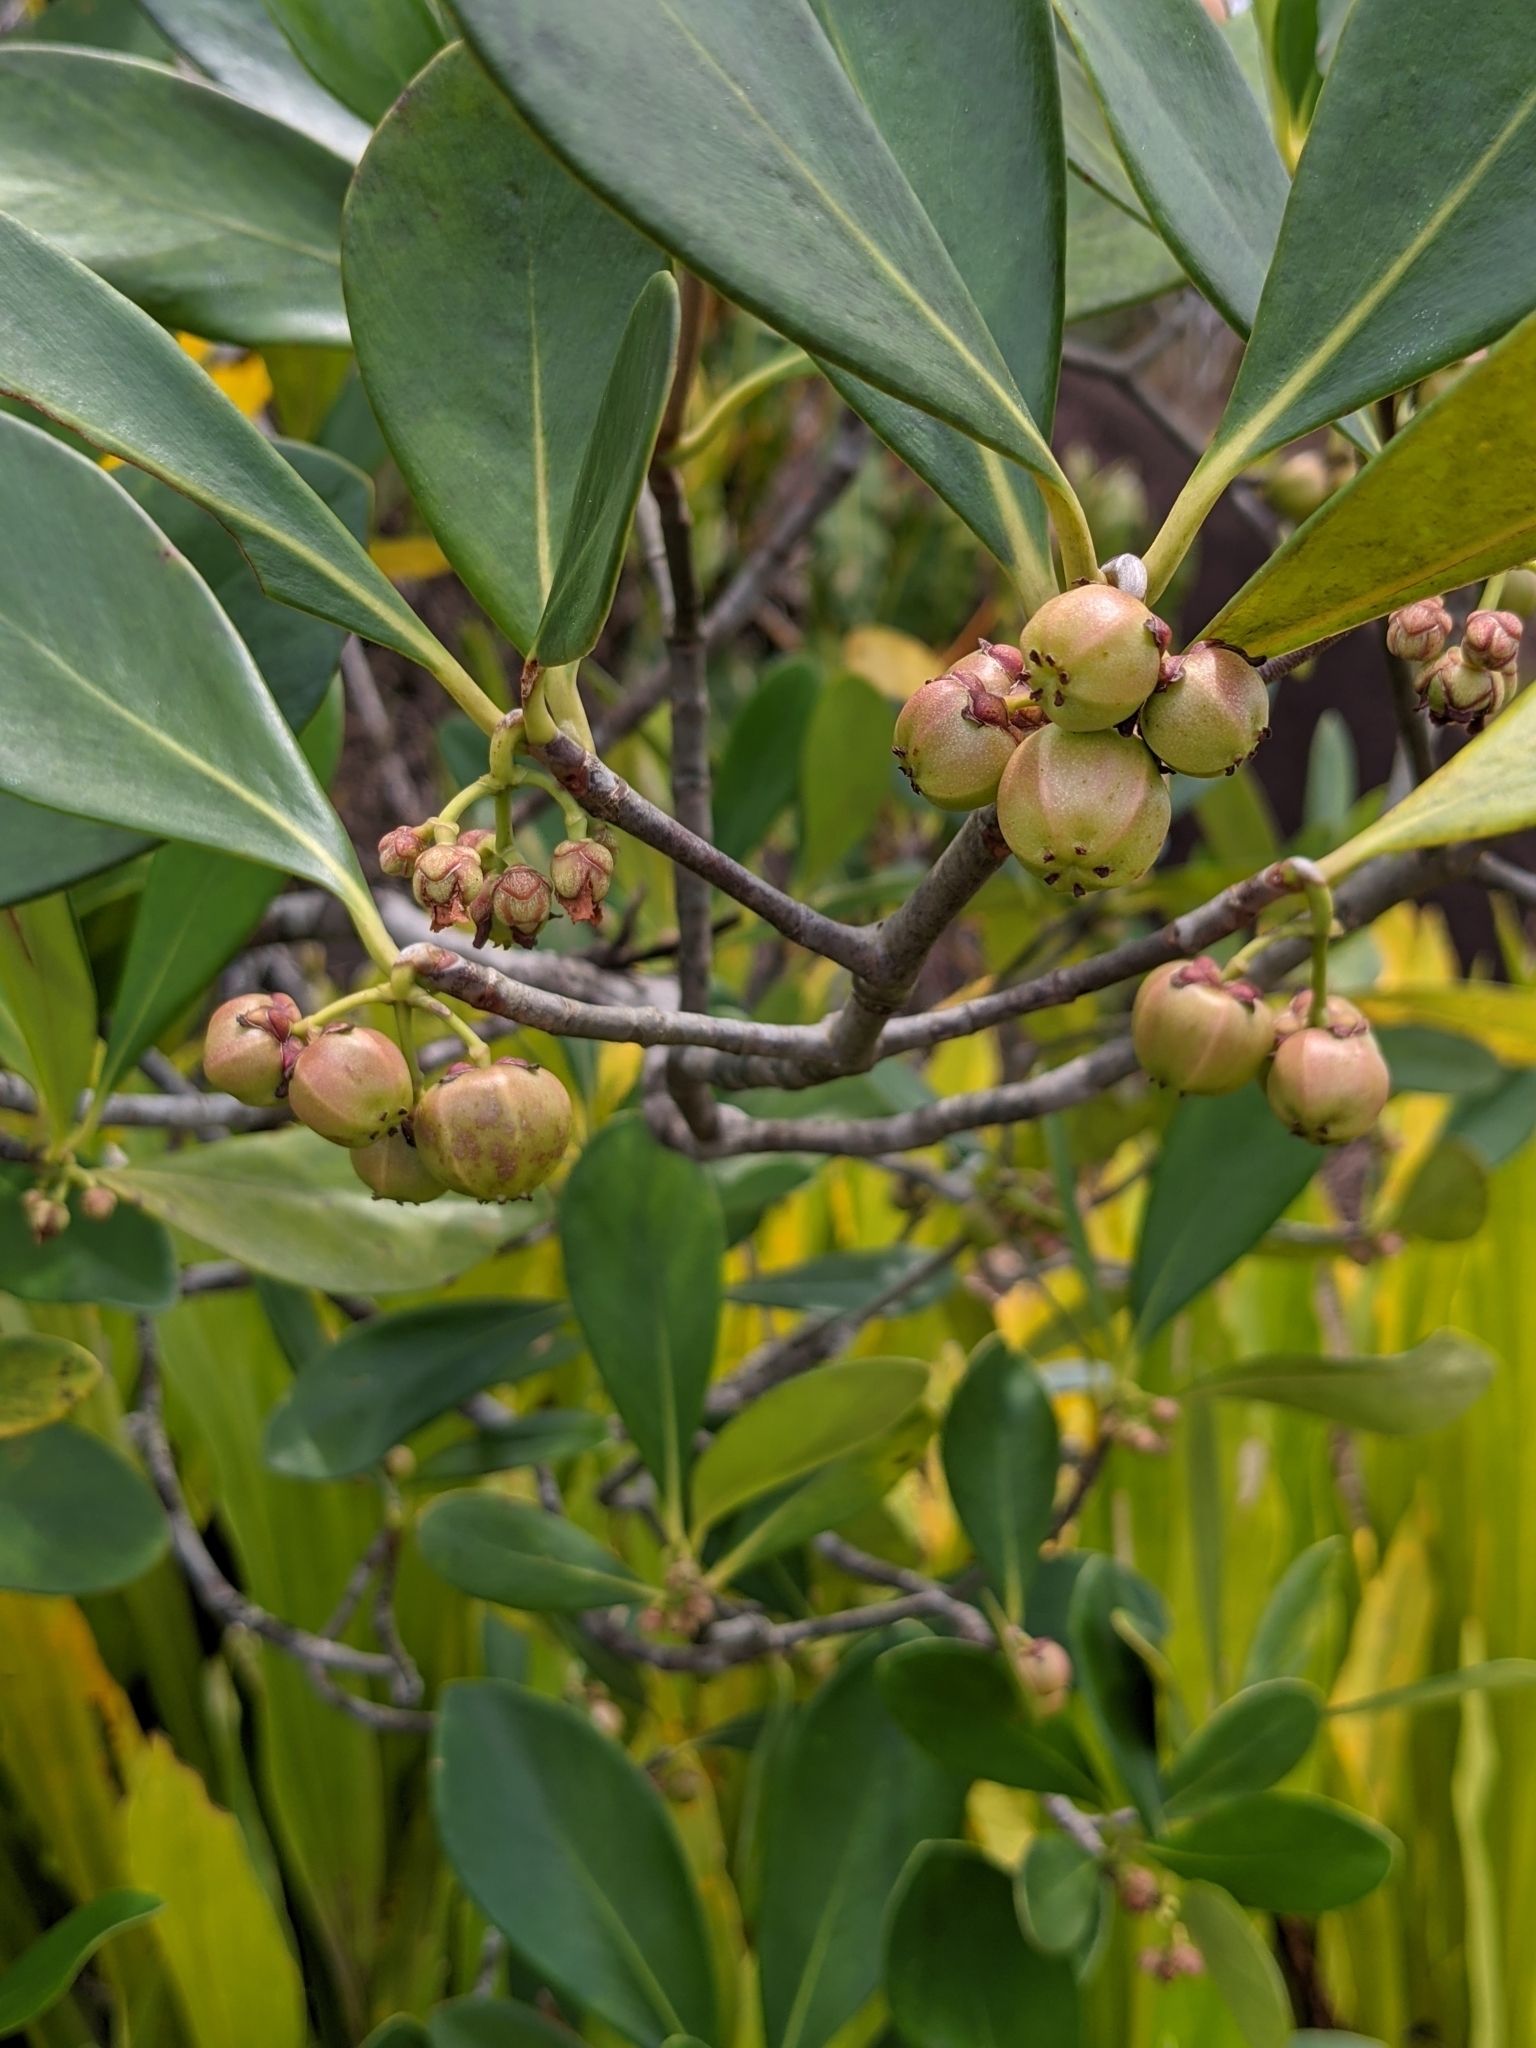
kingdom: Plantae
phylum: Tracheophyta
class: Magnoliopsida
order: Malpighiales
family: Clusiaceae
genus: Clusia
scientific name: Clusia blattophila
